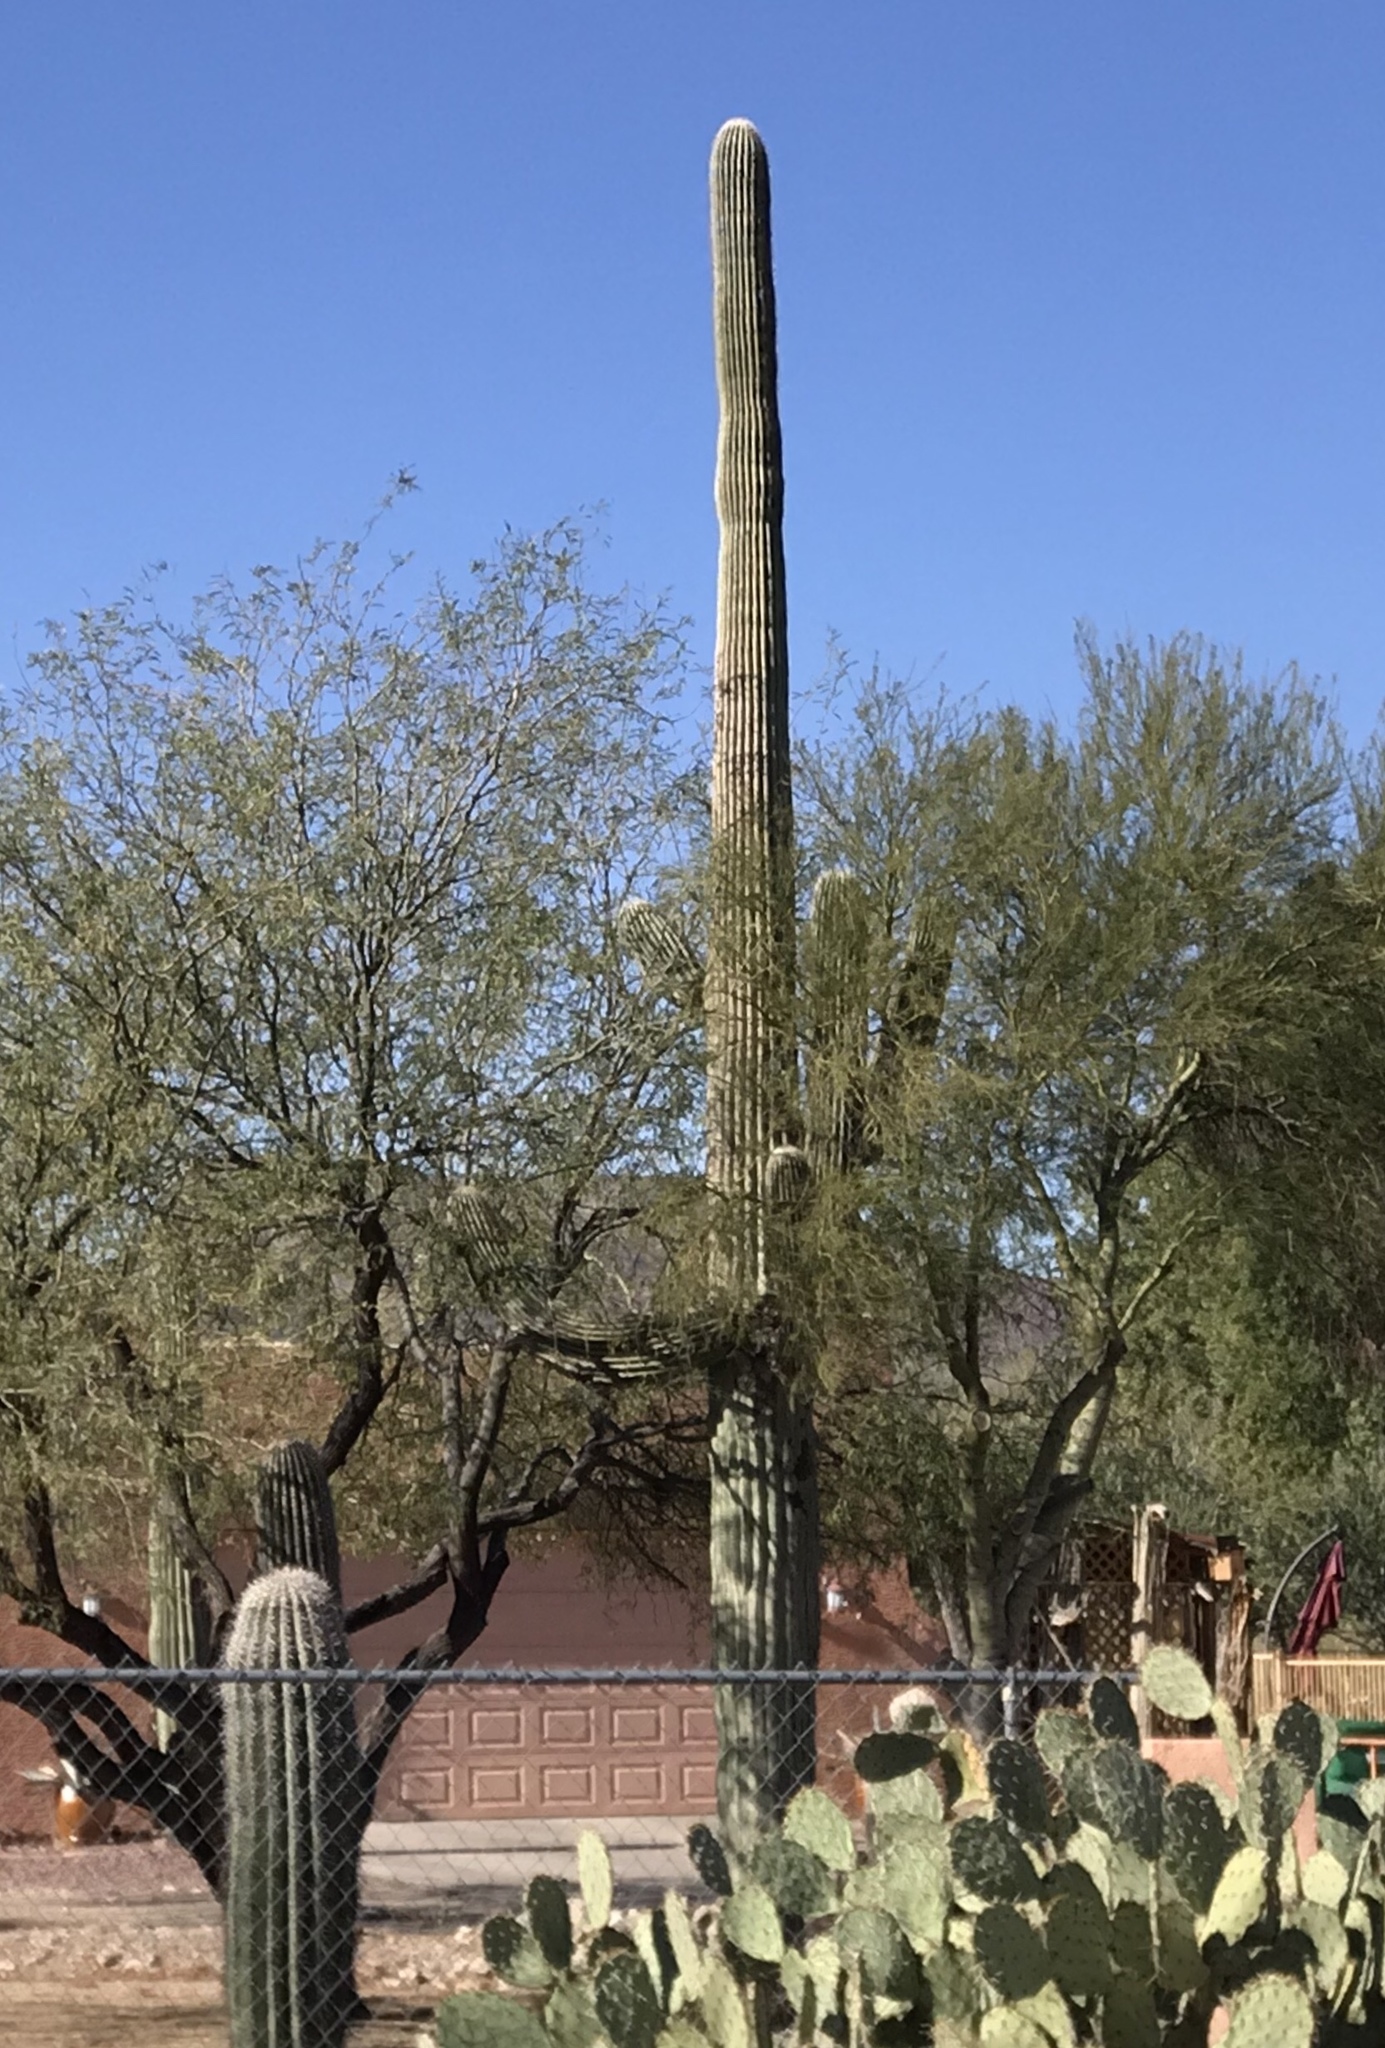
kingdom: Plantae
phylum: Tracheophyta
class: Magnoliopsida
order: Caryophyllales
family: Cactaceae
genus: Carnegiea
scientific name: Carnegiea gigantea
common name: Saguaro
